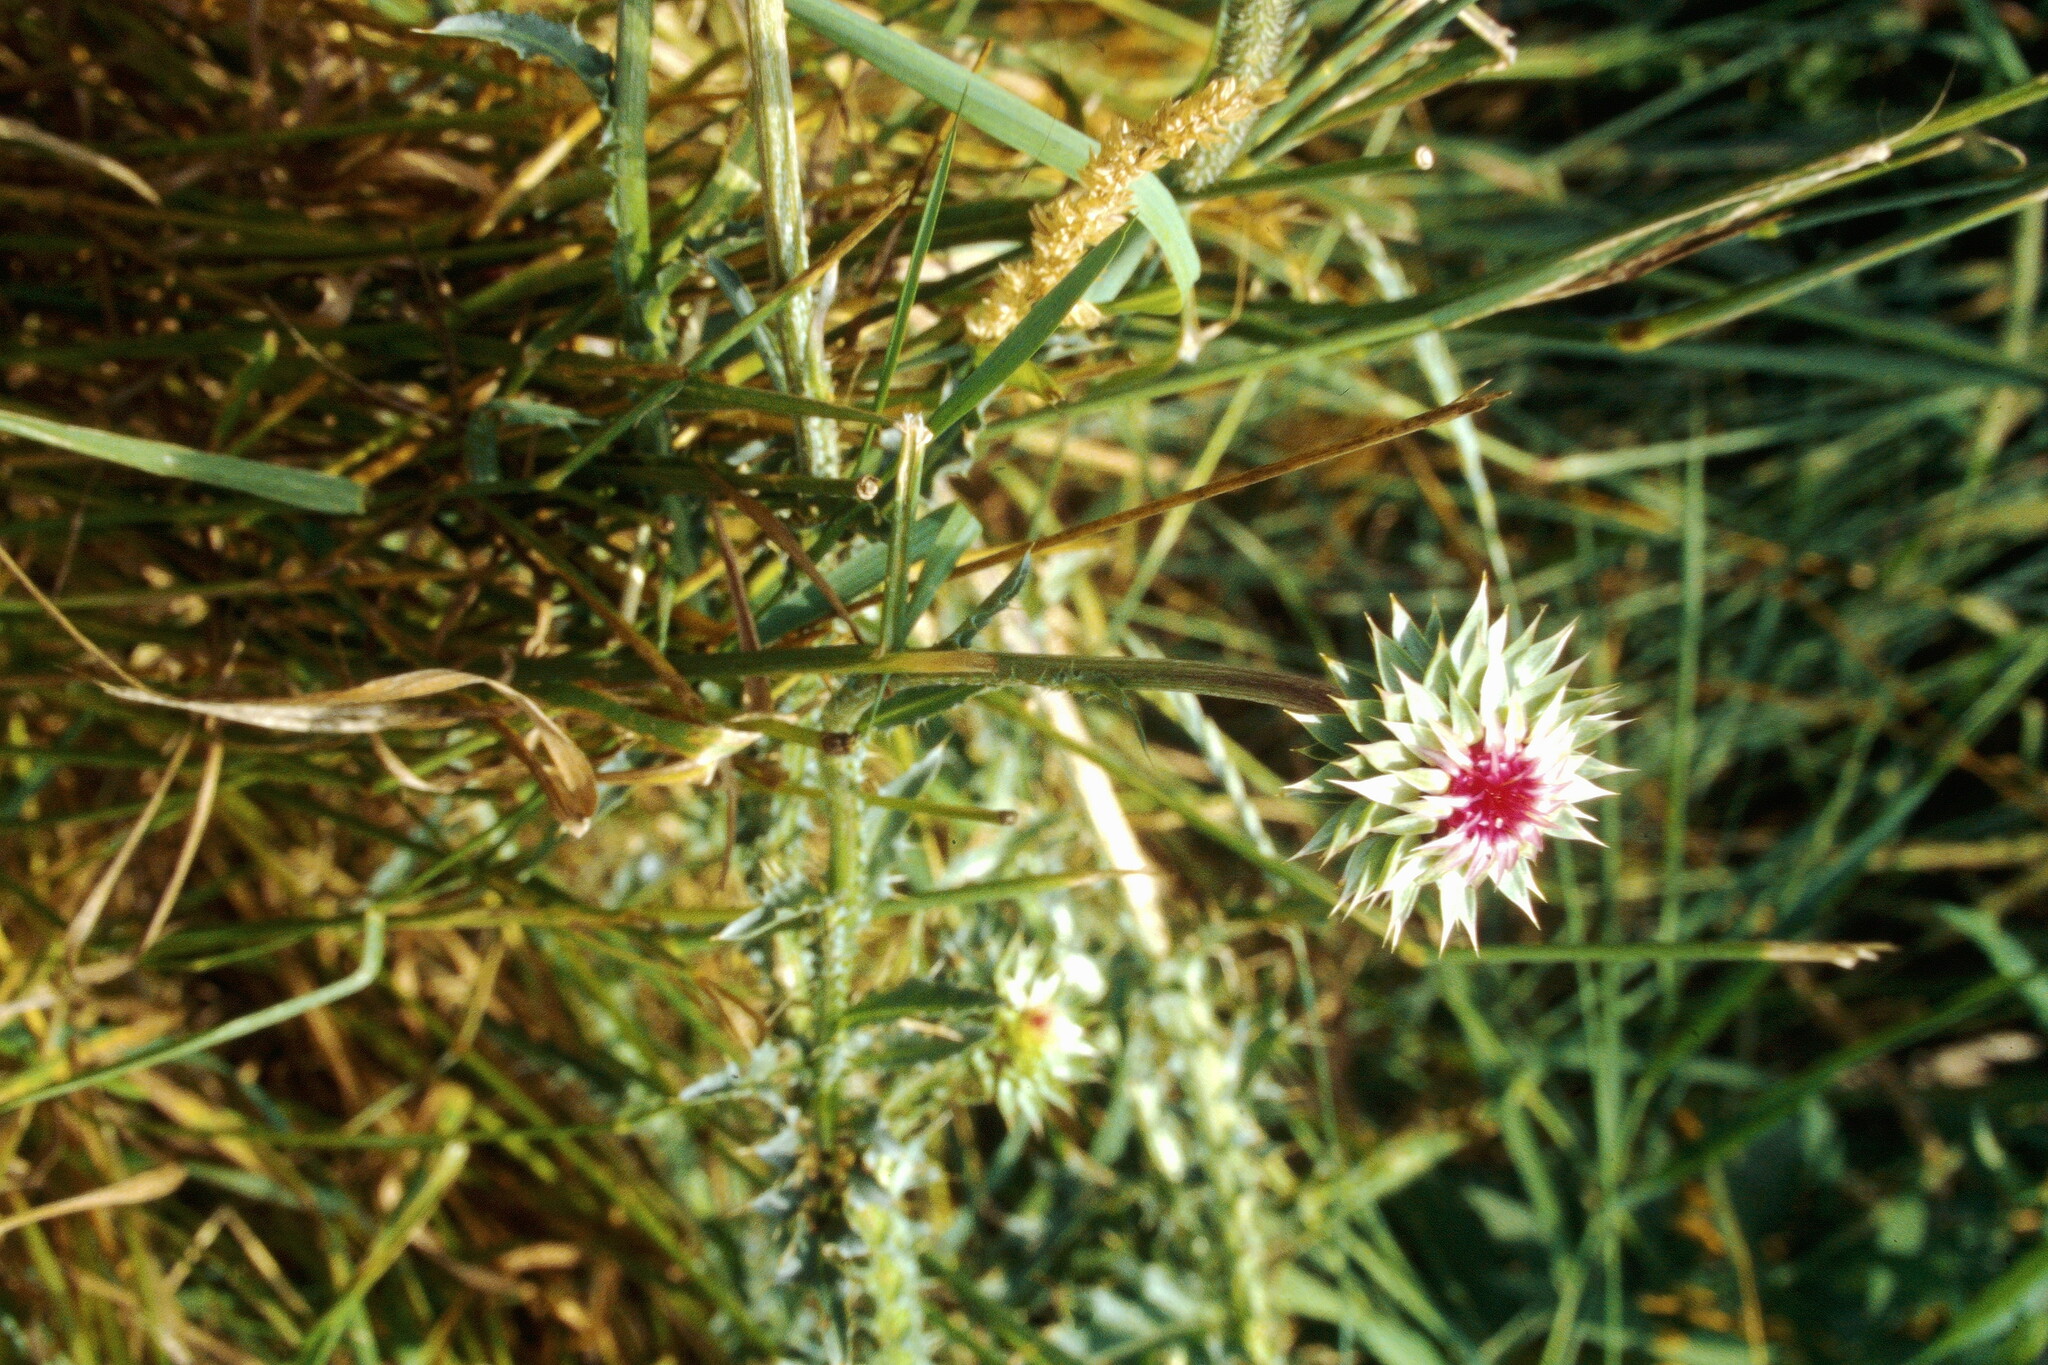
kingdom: Plantae
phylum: Tracheophyta
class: Magnoliopsida
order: Asterales
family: Asteraceae
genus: Carduus
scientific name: Carduus nutans
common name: Musk thistle
